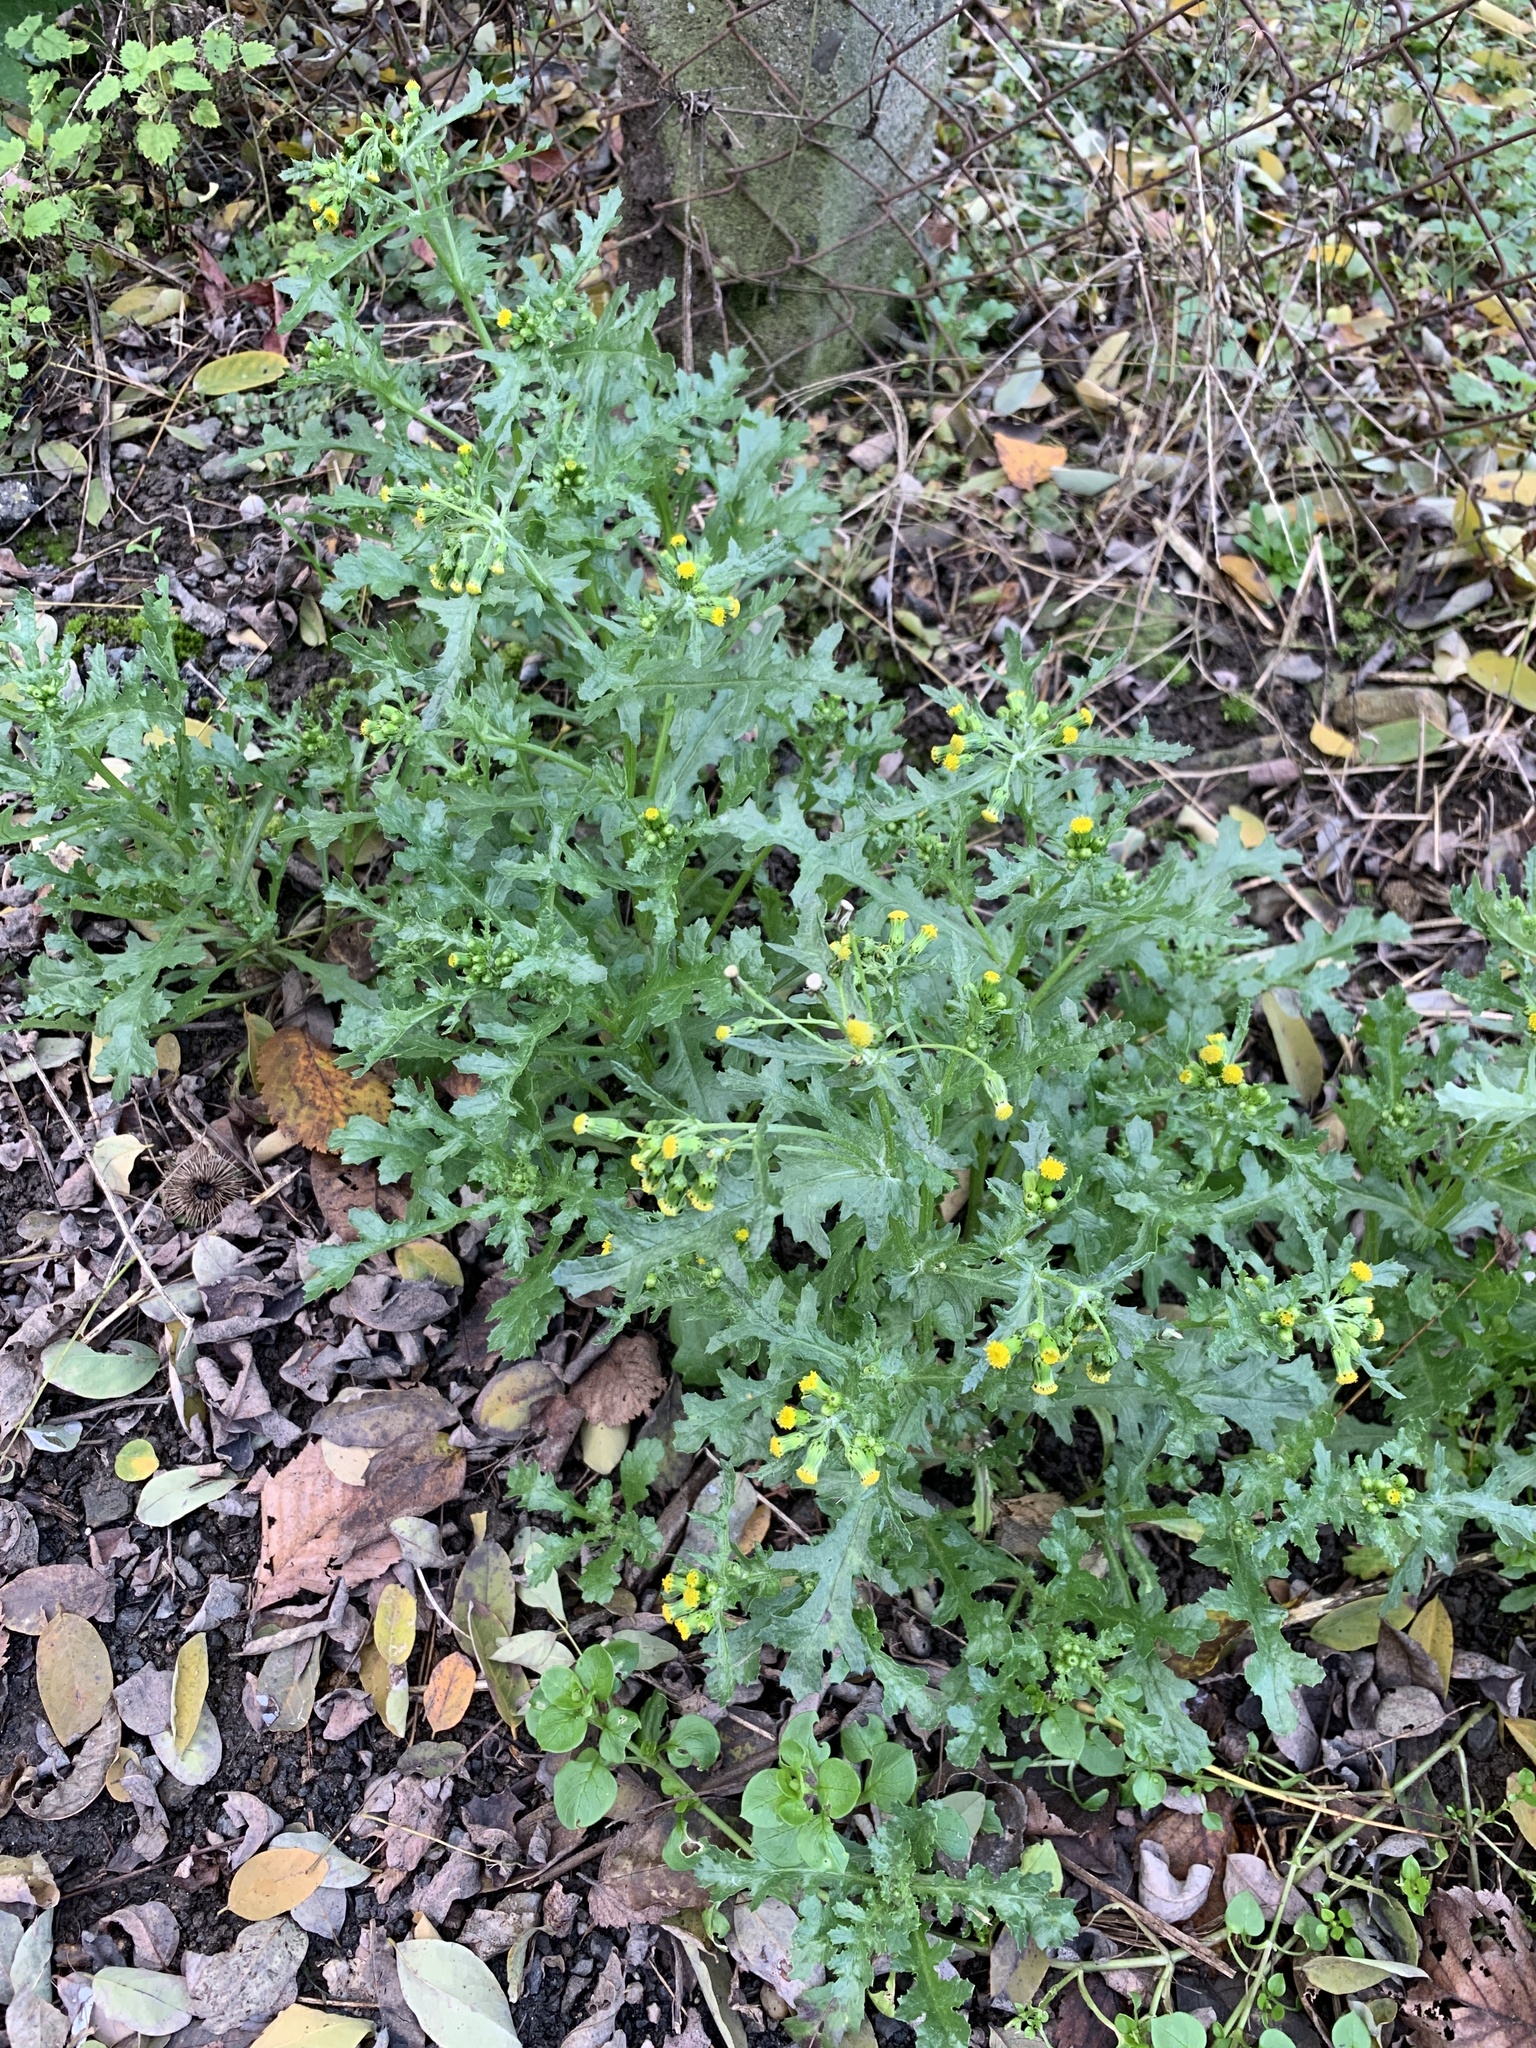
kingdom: Plantae
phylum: Tracheophyta
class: Magnoliopsida
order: Asterales
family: Asteraceae
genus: Senecio
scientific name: Senecio vulgaris
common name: Old-man-in-the-spring
